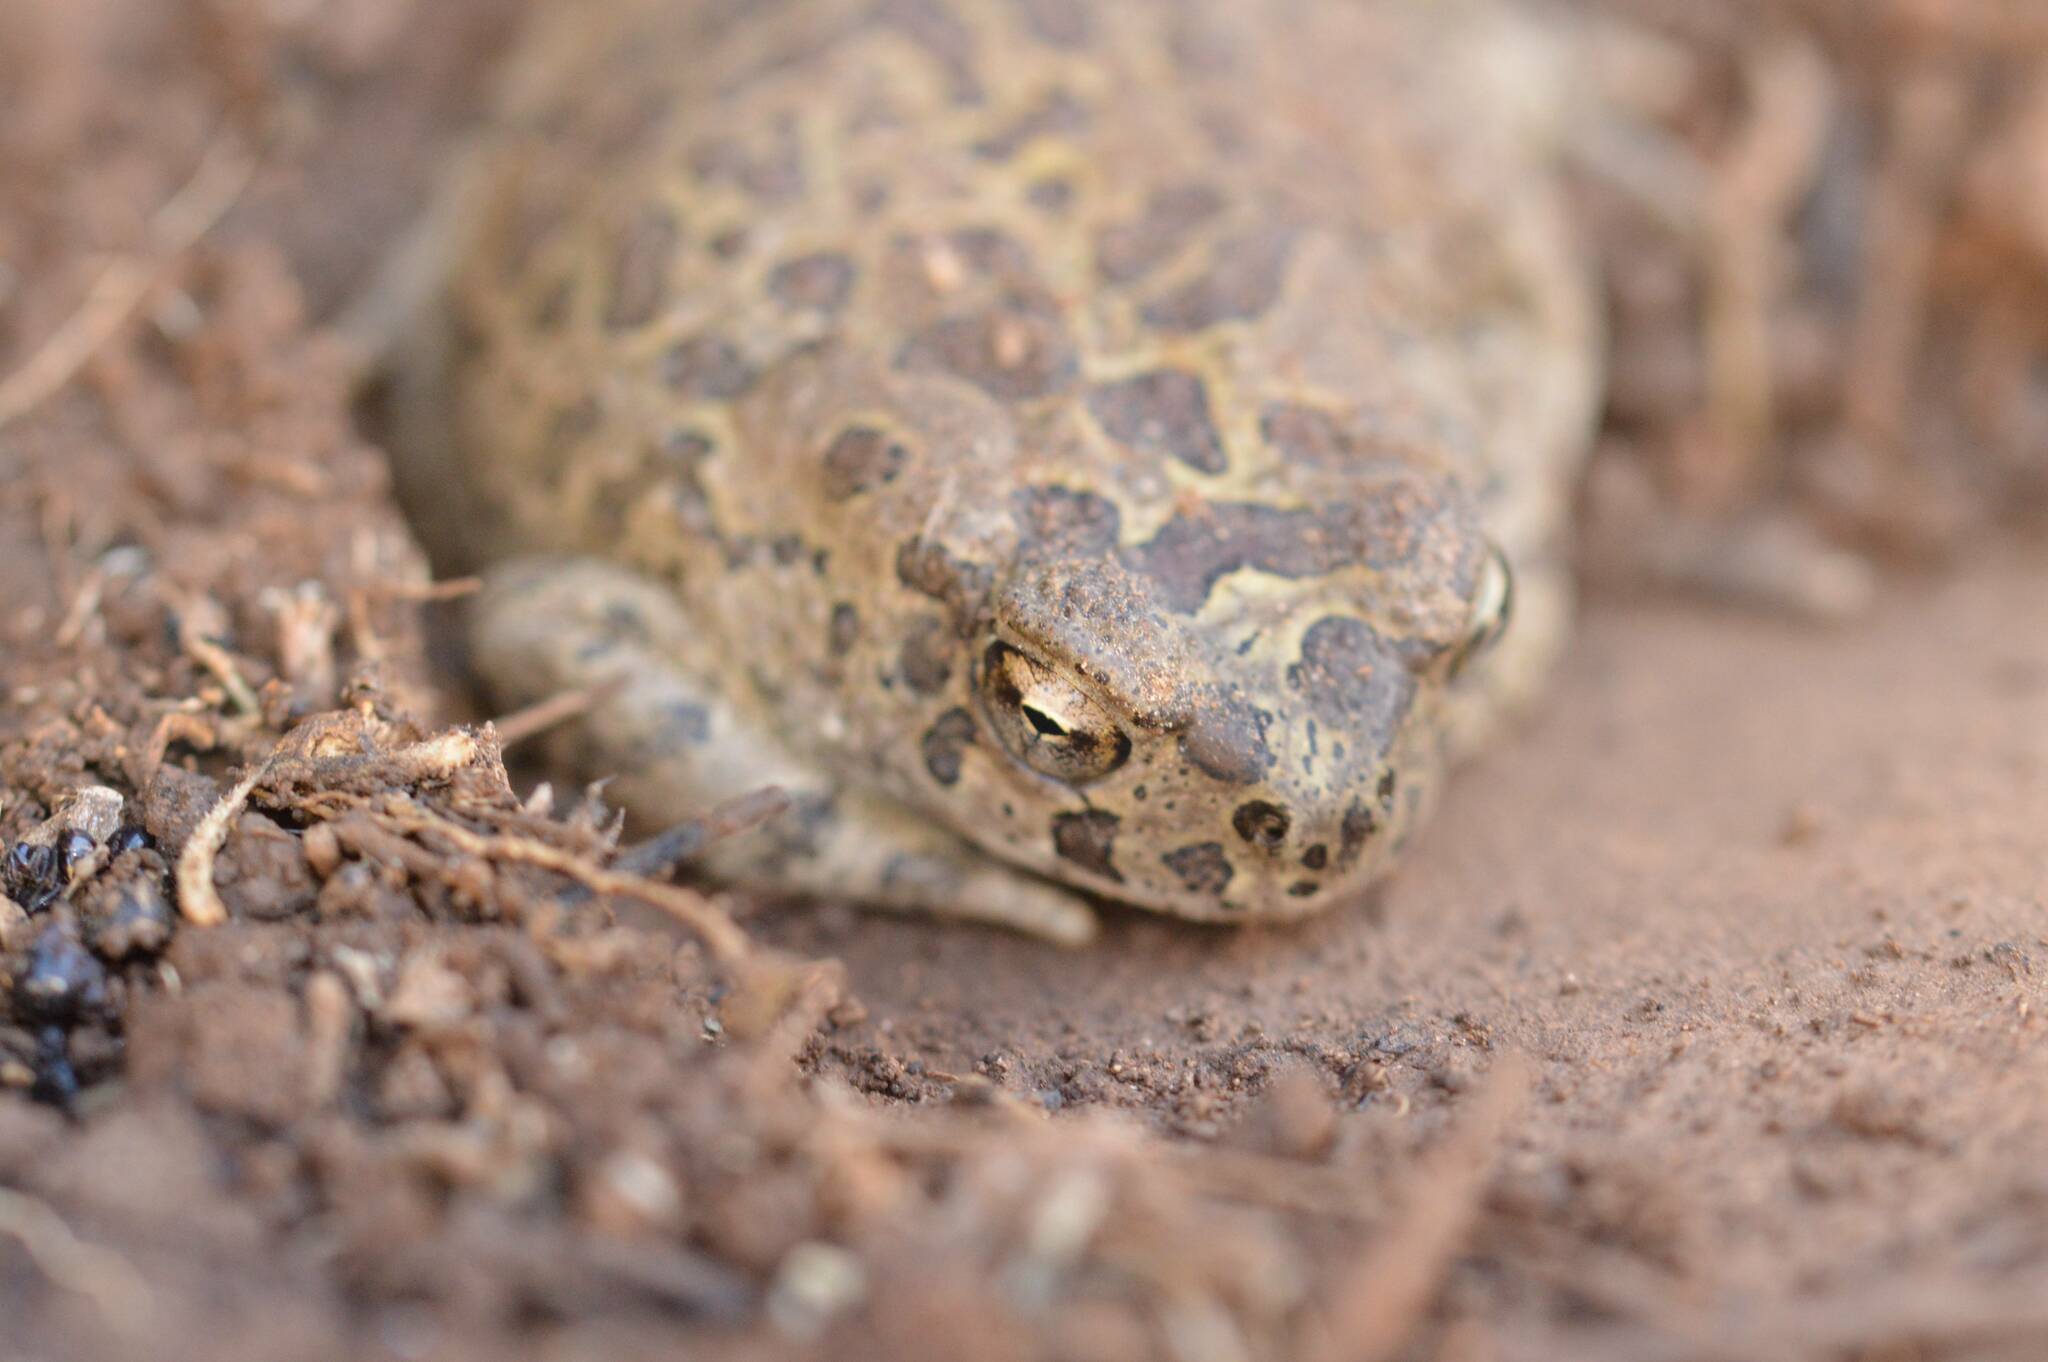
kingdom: Animalia
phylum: Chordata
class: Amphibia
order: Anura
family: Bufonidae
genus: Sclerophrys
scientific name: Sclerophrys mauritanica
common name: Berber toad
